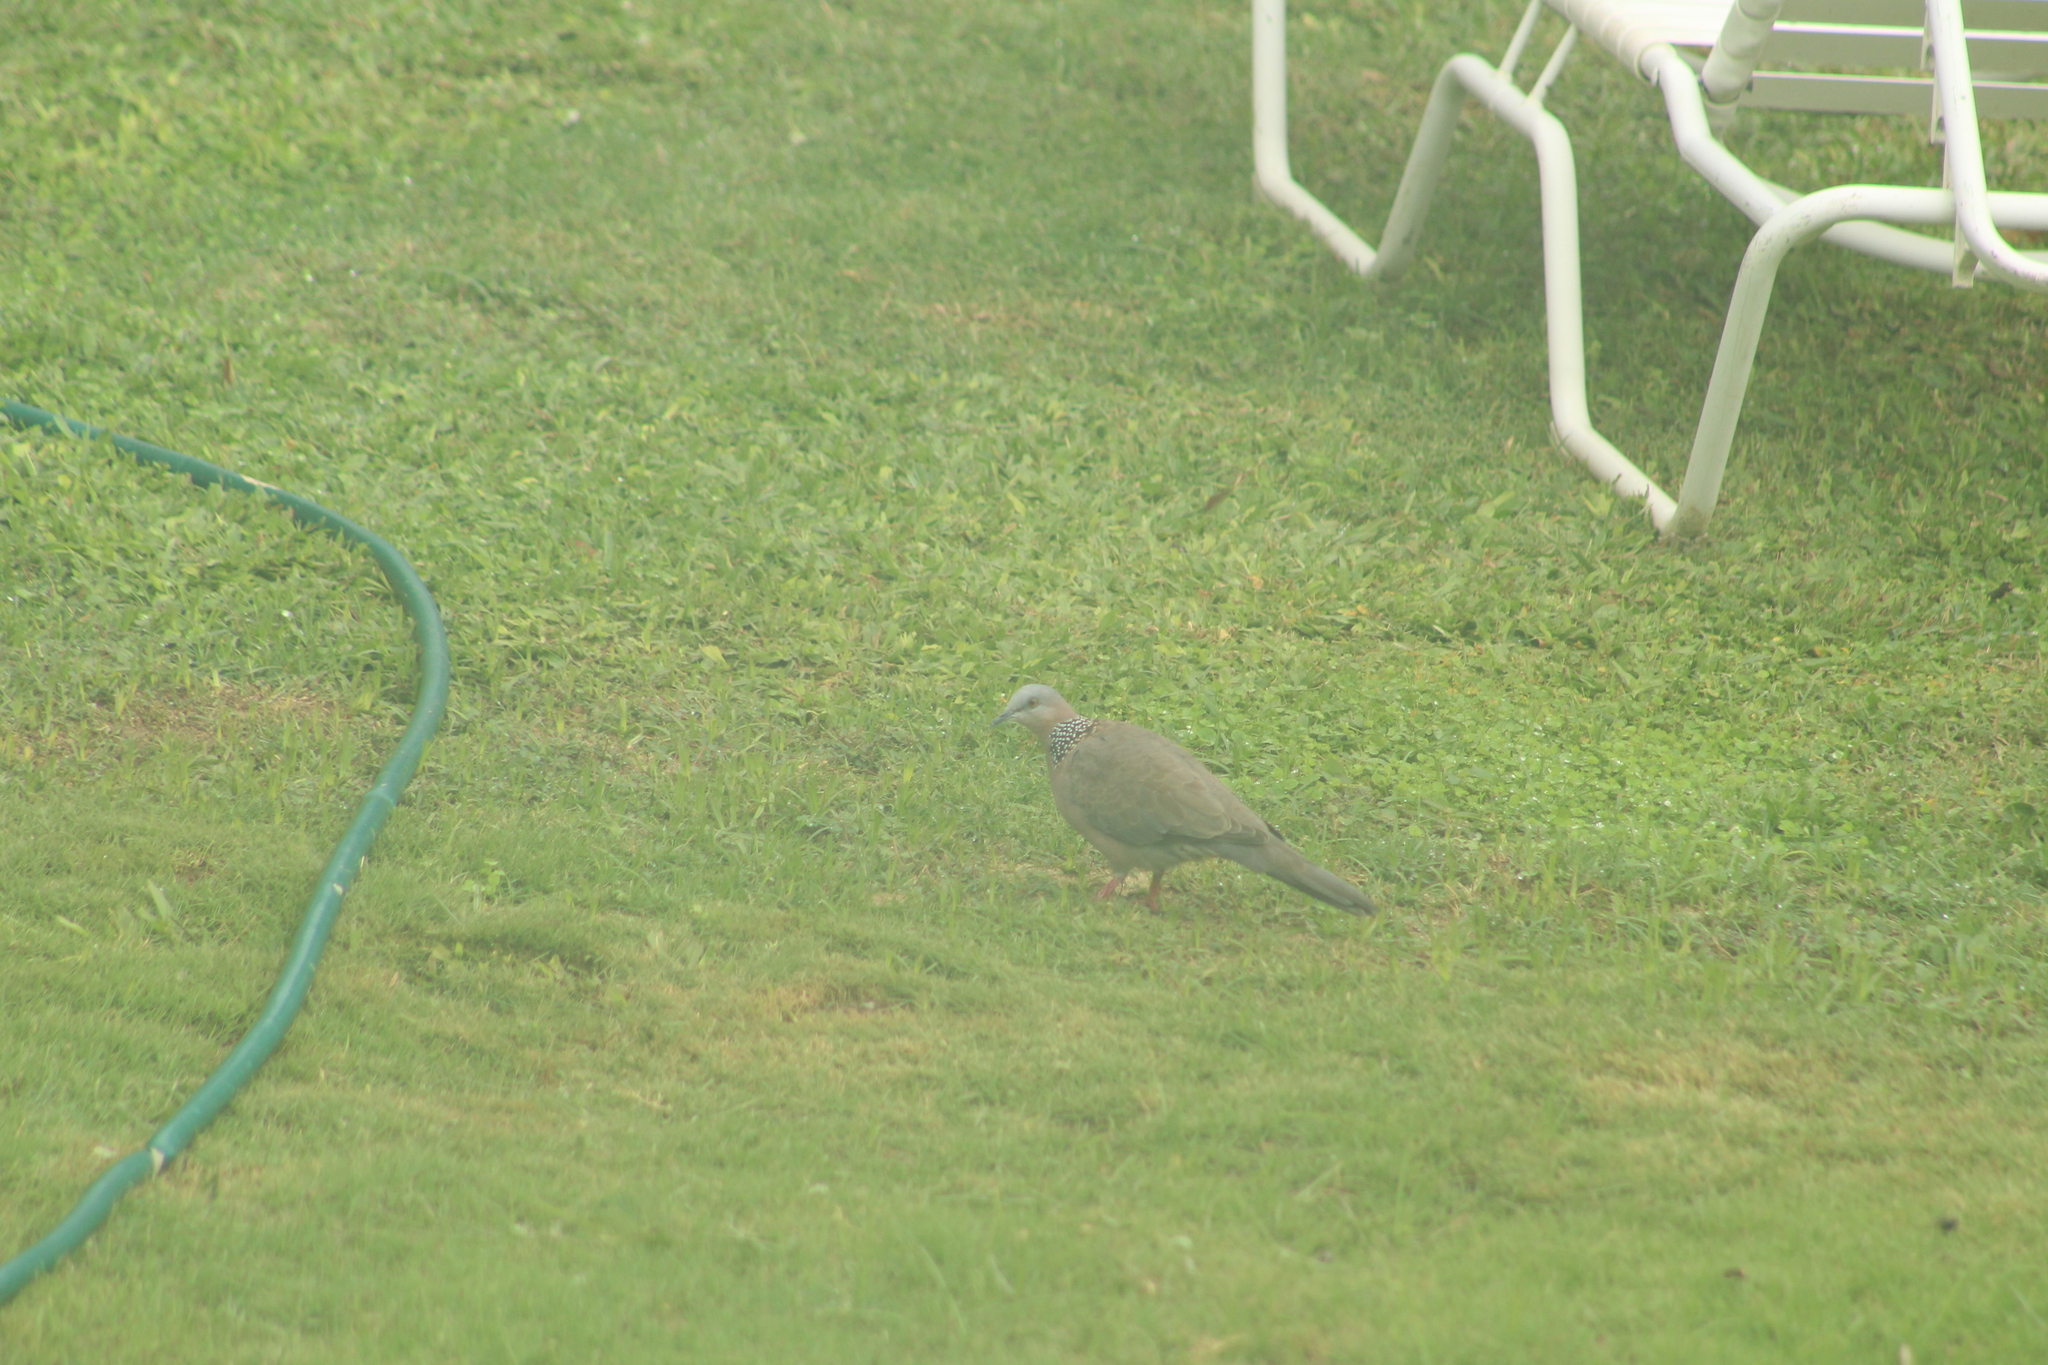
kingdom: Animalia
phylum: Chordata
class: Aves
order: Columbiformes
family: Columbidae
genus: Spilopelia
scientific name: Spilopelia chinensis
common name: Spotted dove
